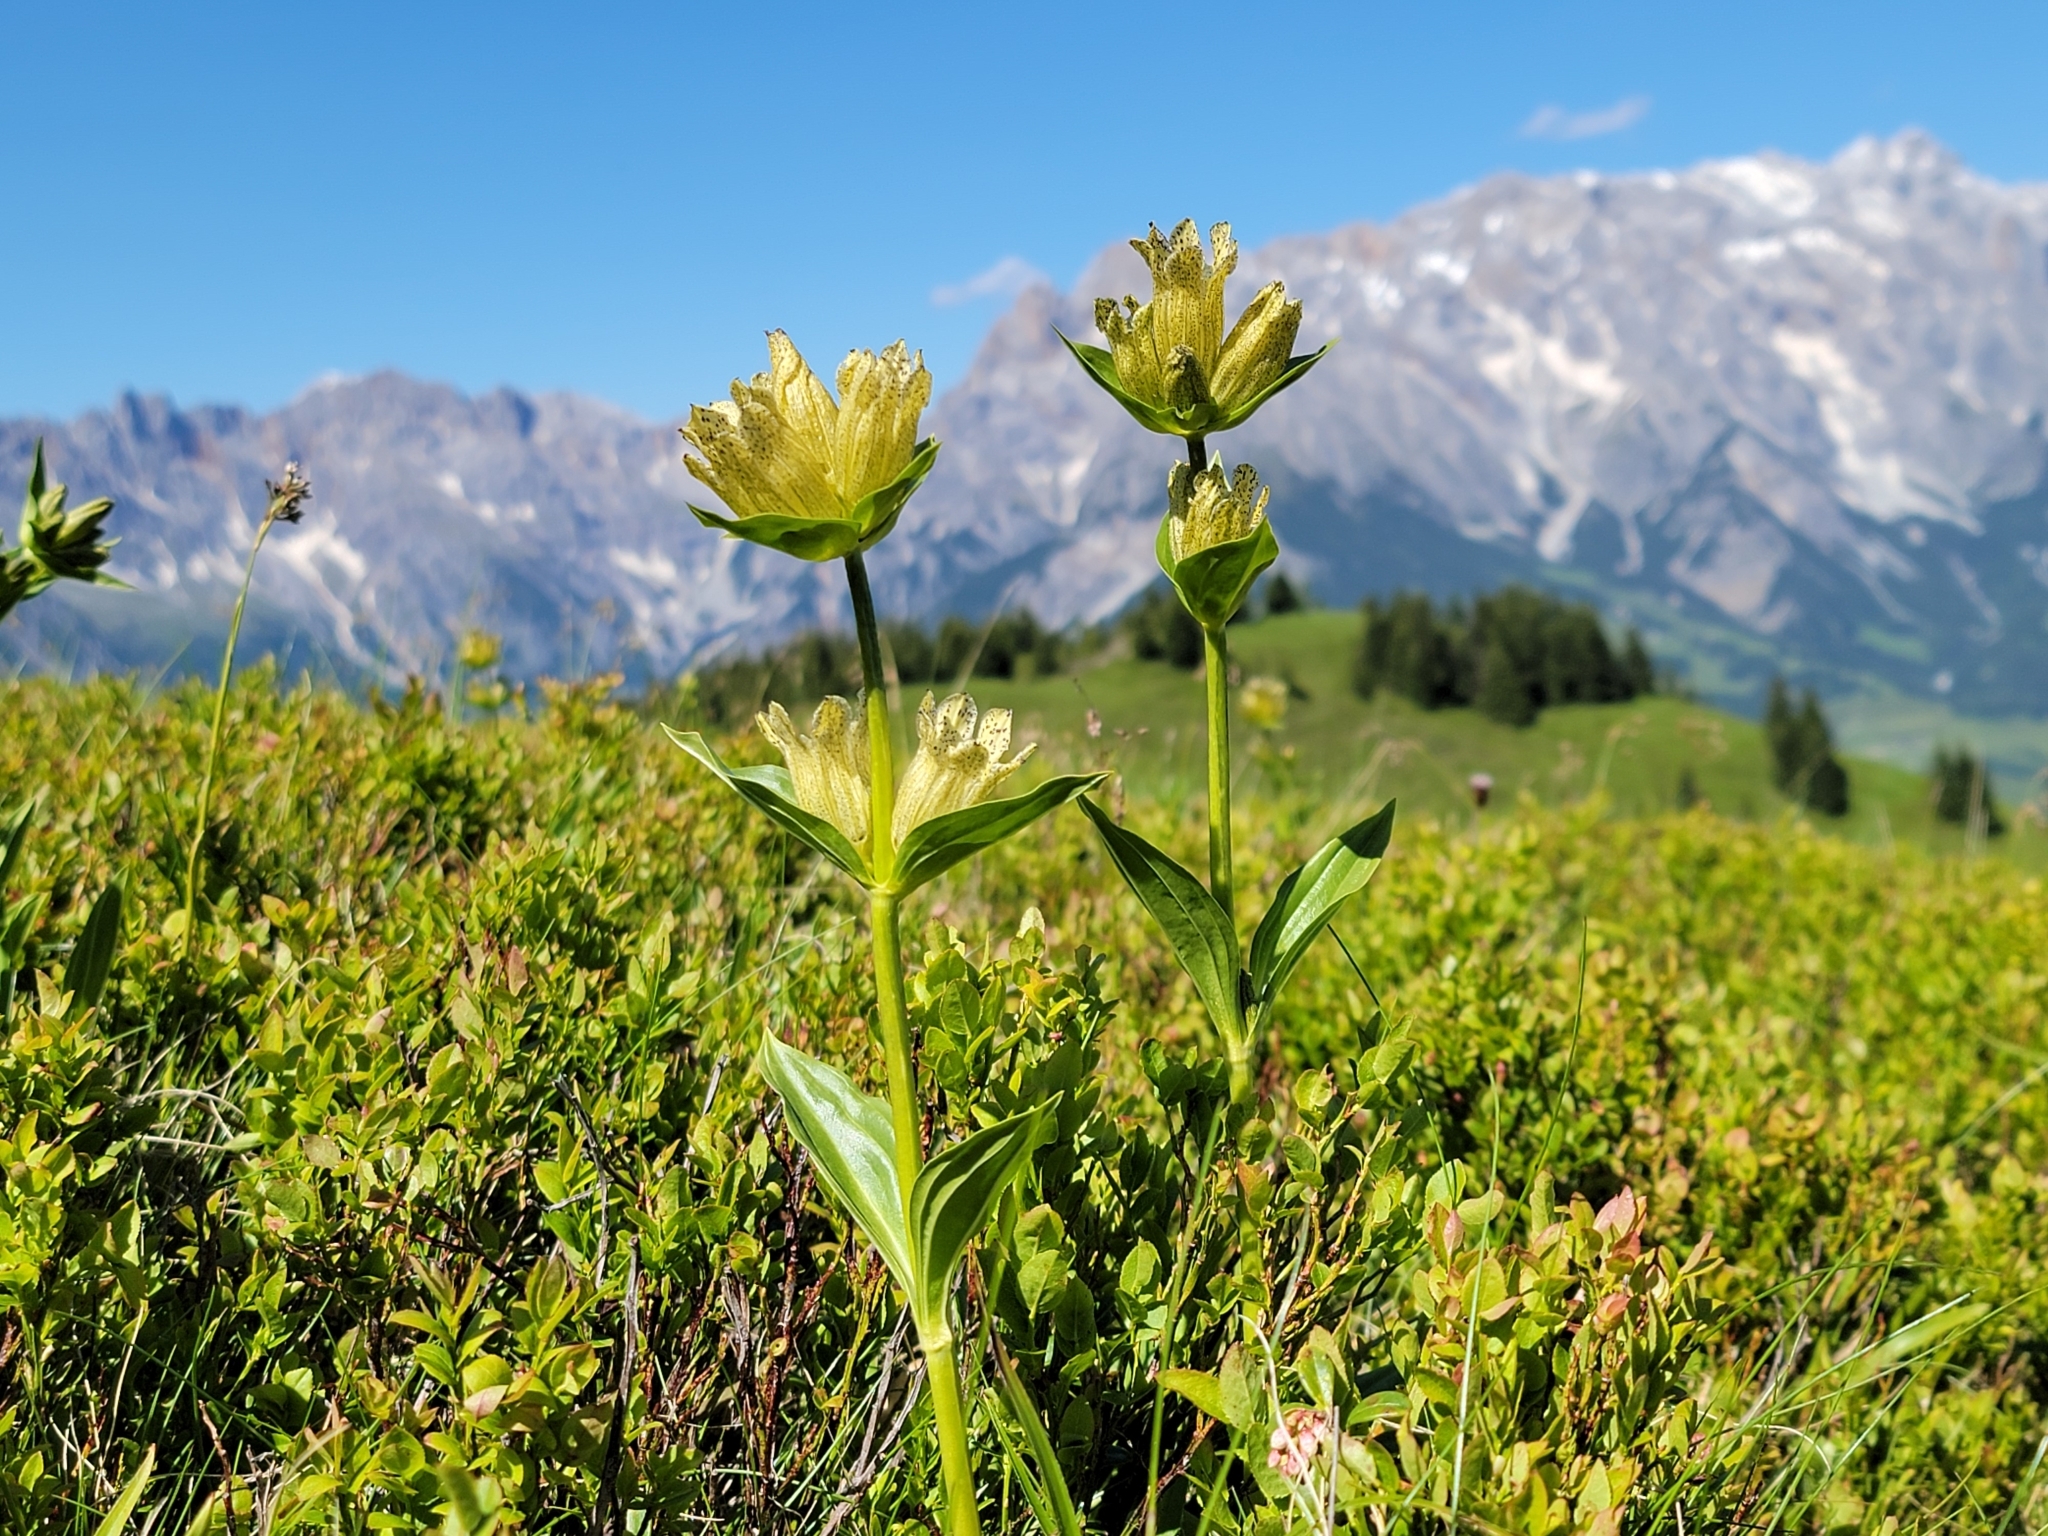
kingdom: Plantae
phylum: Tracheophyta
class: Magnoliopsida
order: Gentianales
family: Gentianaceae
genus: Gentiana
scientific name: Gentiana punctata
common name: Spotted gentian
